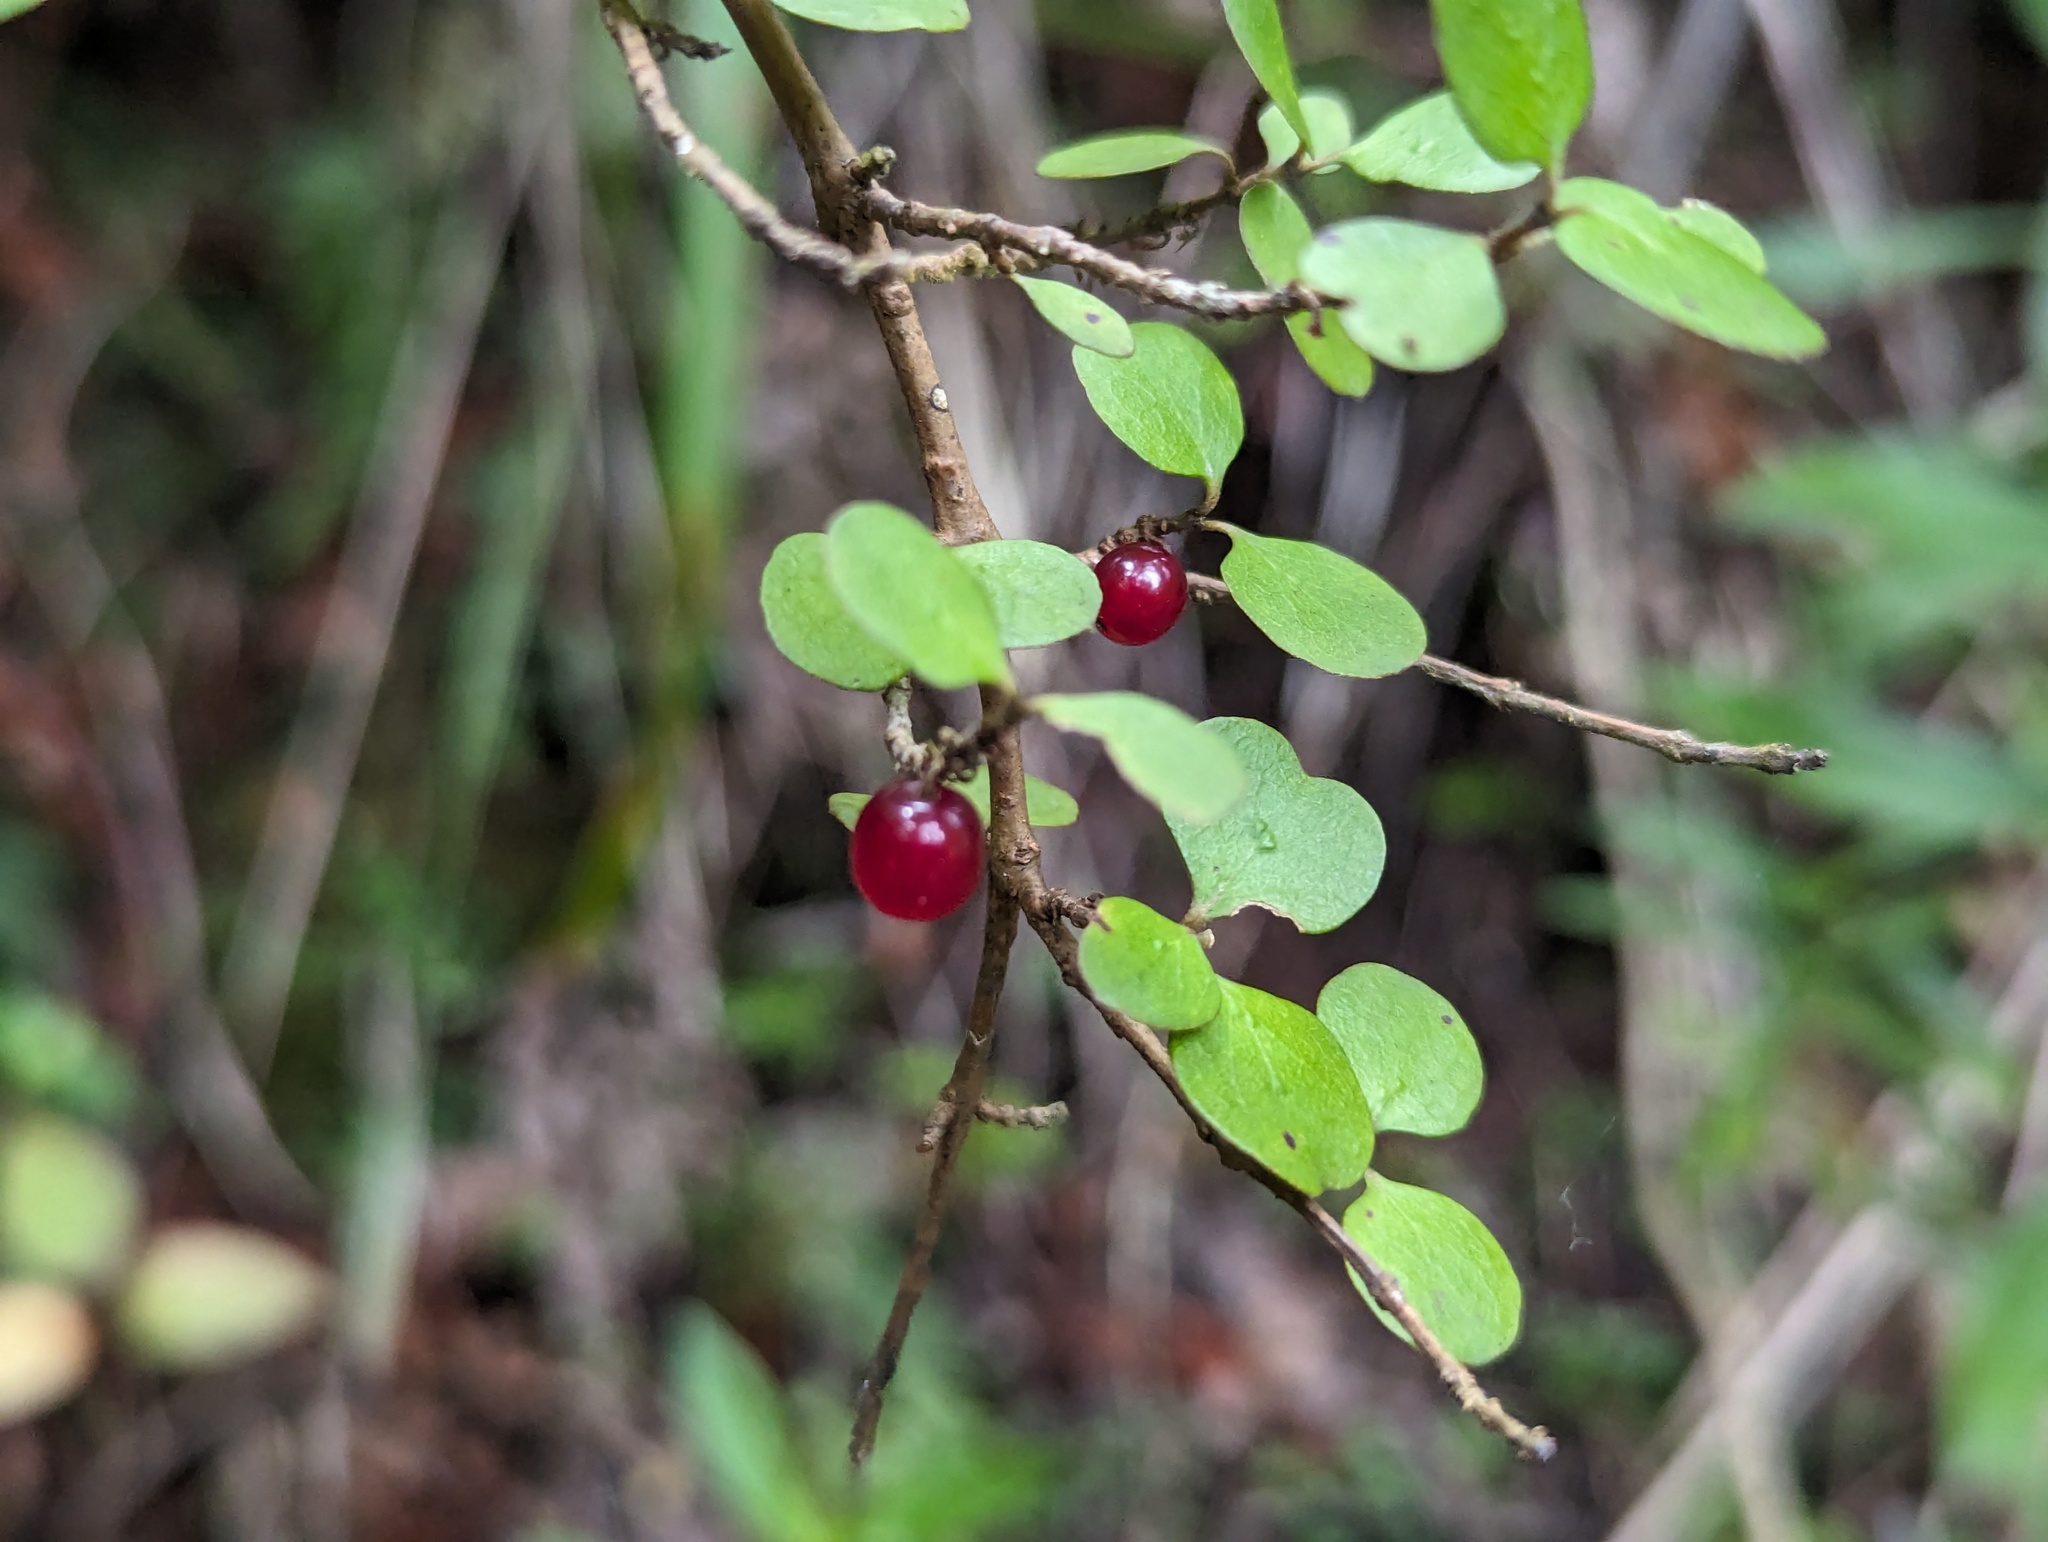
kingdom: Plantae
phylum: Tracheophyta
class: Magnoliopsida
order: Gentianales
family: Rubiaceae
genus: Coprosma
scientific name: Coprosma rhamnoides
